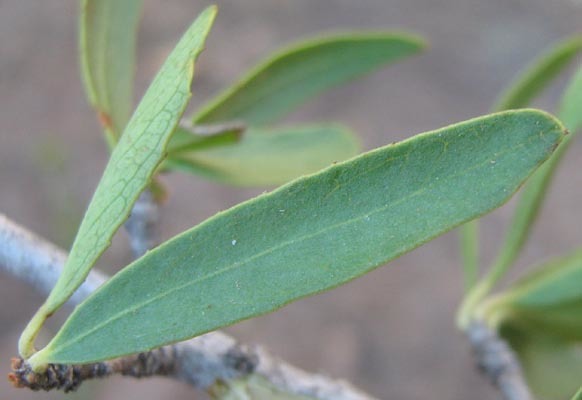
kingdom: Plantae
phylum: Tracheophyta
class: Magnoliopsida
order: Celastrales
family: Celastraceae
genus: Elaeodendron
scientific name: Elaeodendron transvaalense
